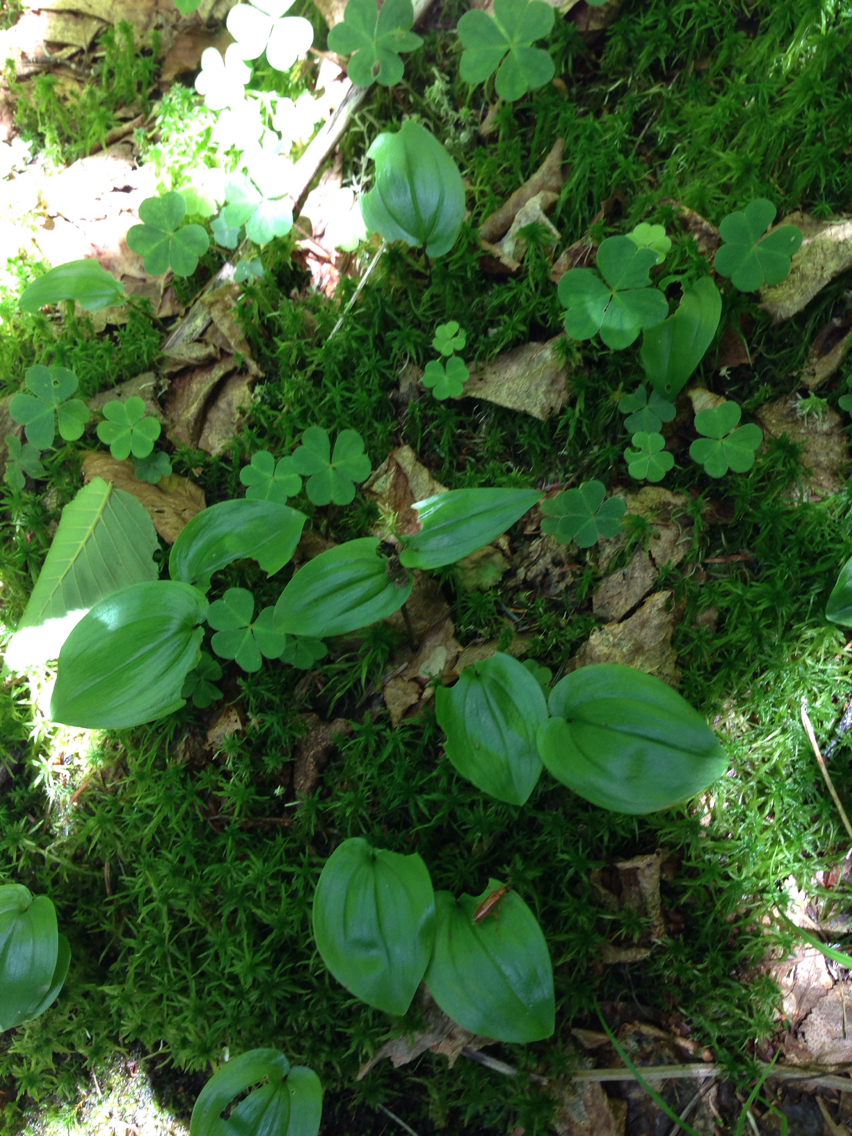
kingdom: Plantae
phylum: Tracheophyta
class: Liliopsida
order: Asparagales
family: Asparagaceae
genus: Maianthemum
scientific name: Maianthemum canadense
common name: False lily-of-the-valley
